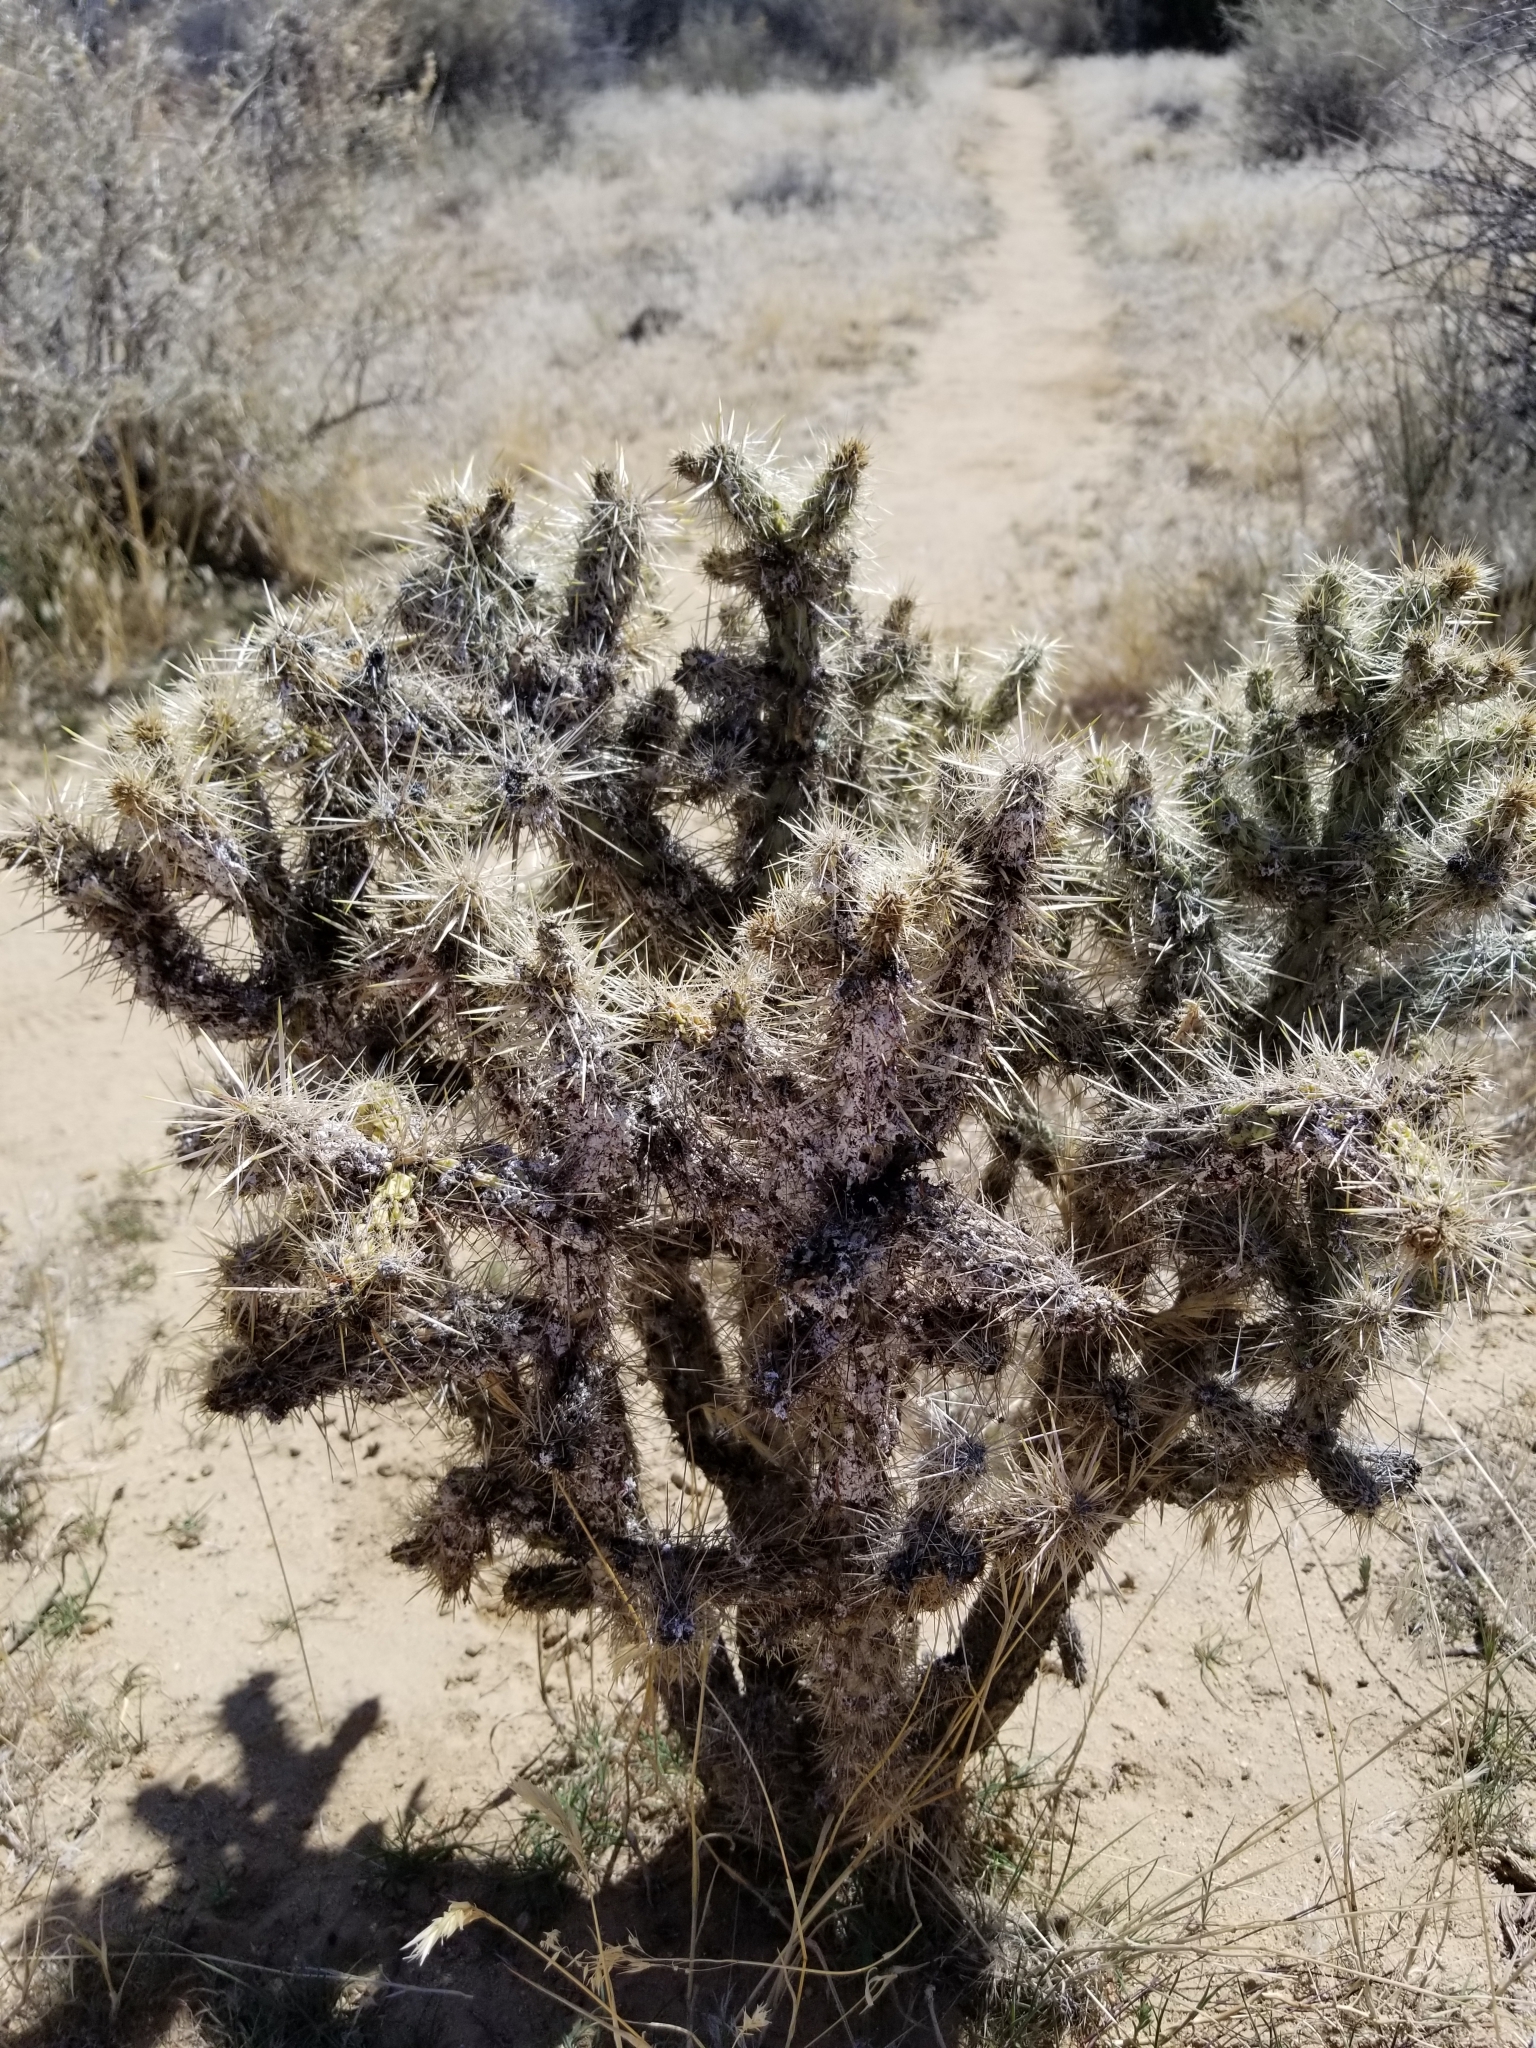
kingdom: Plantae
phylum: Tracheophyta
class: Magnoliopsida
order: Caryophyllales
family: Cactaceae
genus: Cylindropuntia
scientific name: Cylindropuntia echinocarpa
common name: Ground cholla
